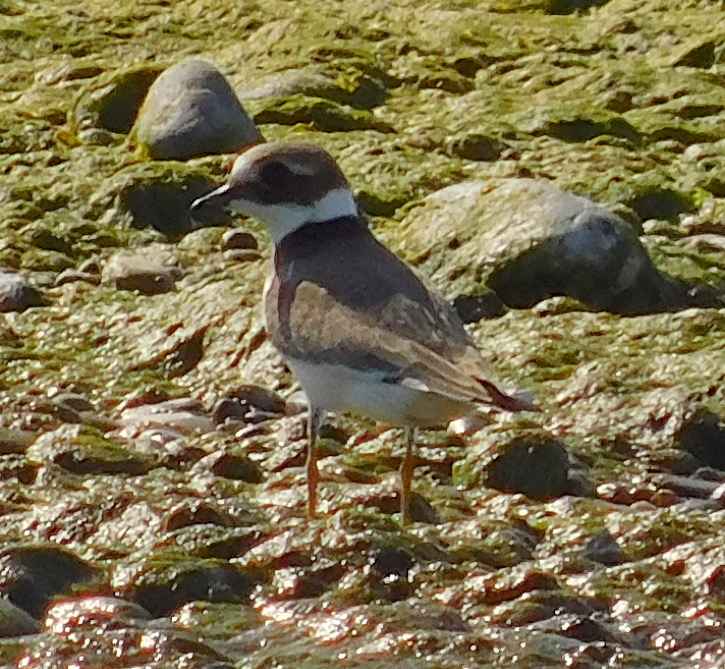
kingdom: Animalia
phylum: Chordata
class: Aves
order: Charadriiformes
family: Charadriidae
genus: Charadrius
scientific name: Charadrius hiaticula
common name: Common ringed plover
